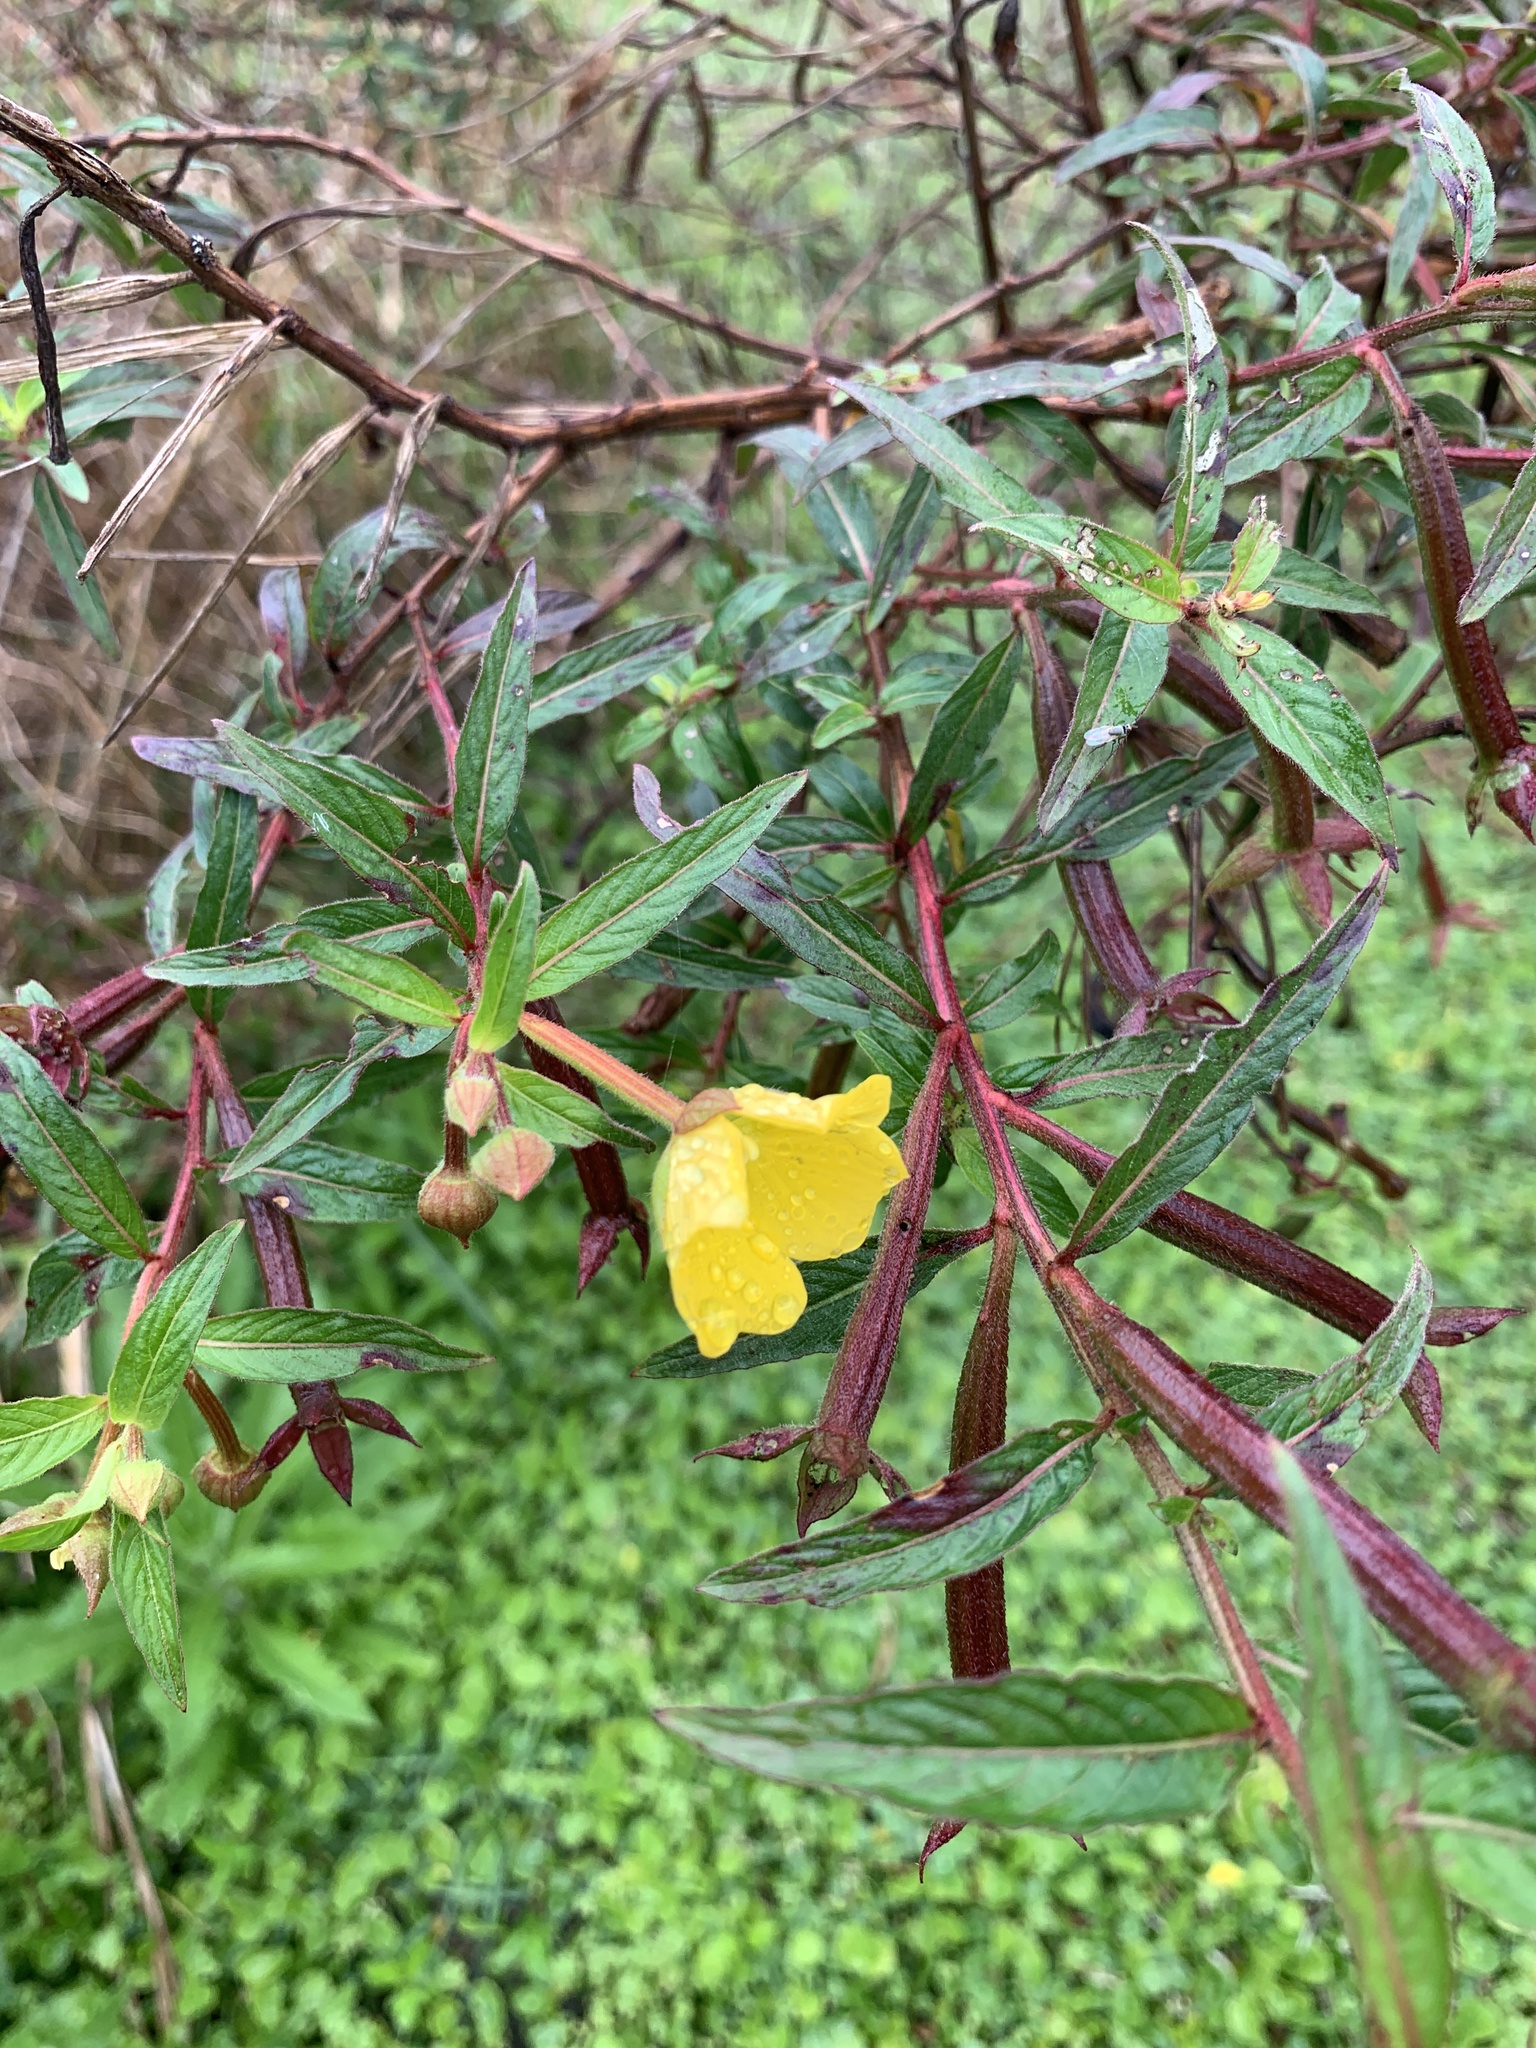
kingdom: Plantae
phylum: Tracheophyta
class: Magnoliopsida
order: Myrtales
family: Onagraceae
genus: Ludwigia
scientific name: Ludwigia octovalvis
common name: Water-primrose
